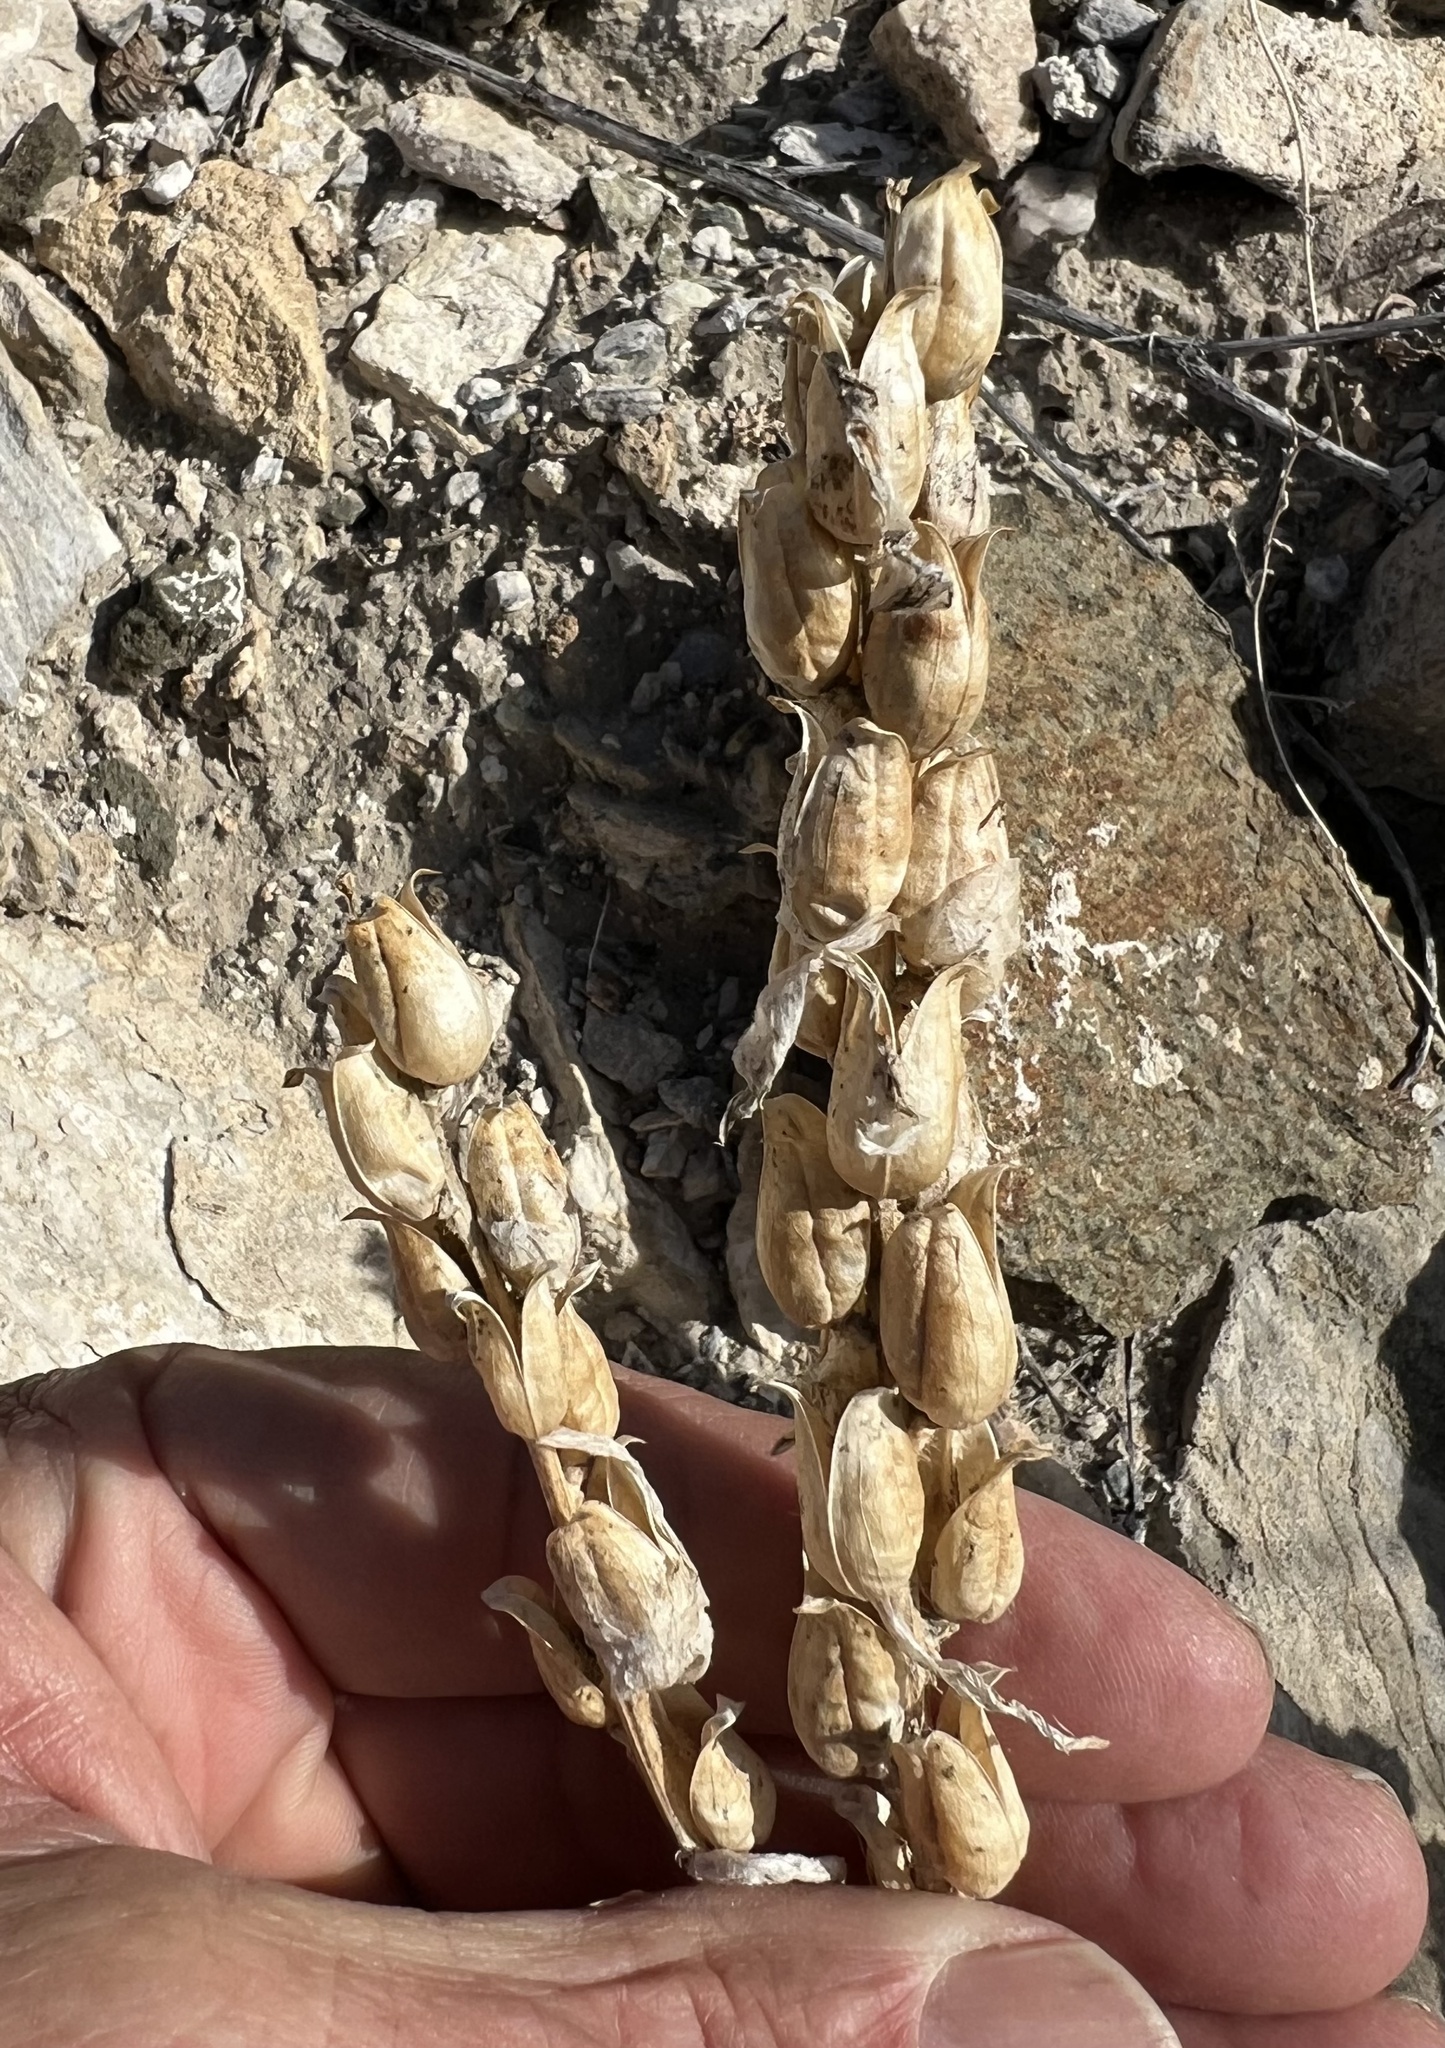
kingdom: Plantae
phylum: Tracheophyta
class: Magnoliopsida
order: Lamiales
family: Orobanchaceae
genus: Castilleja
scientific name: Castilleja chromosa
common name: Desert paintbrush
